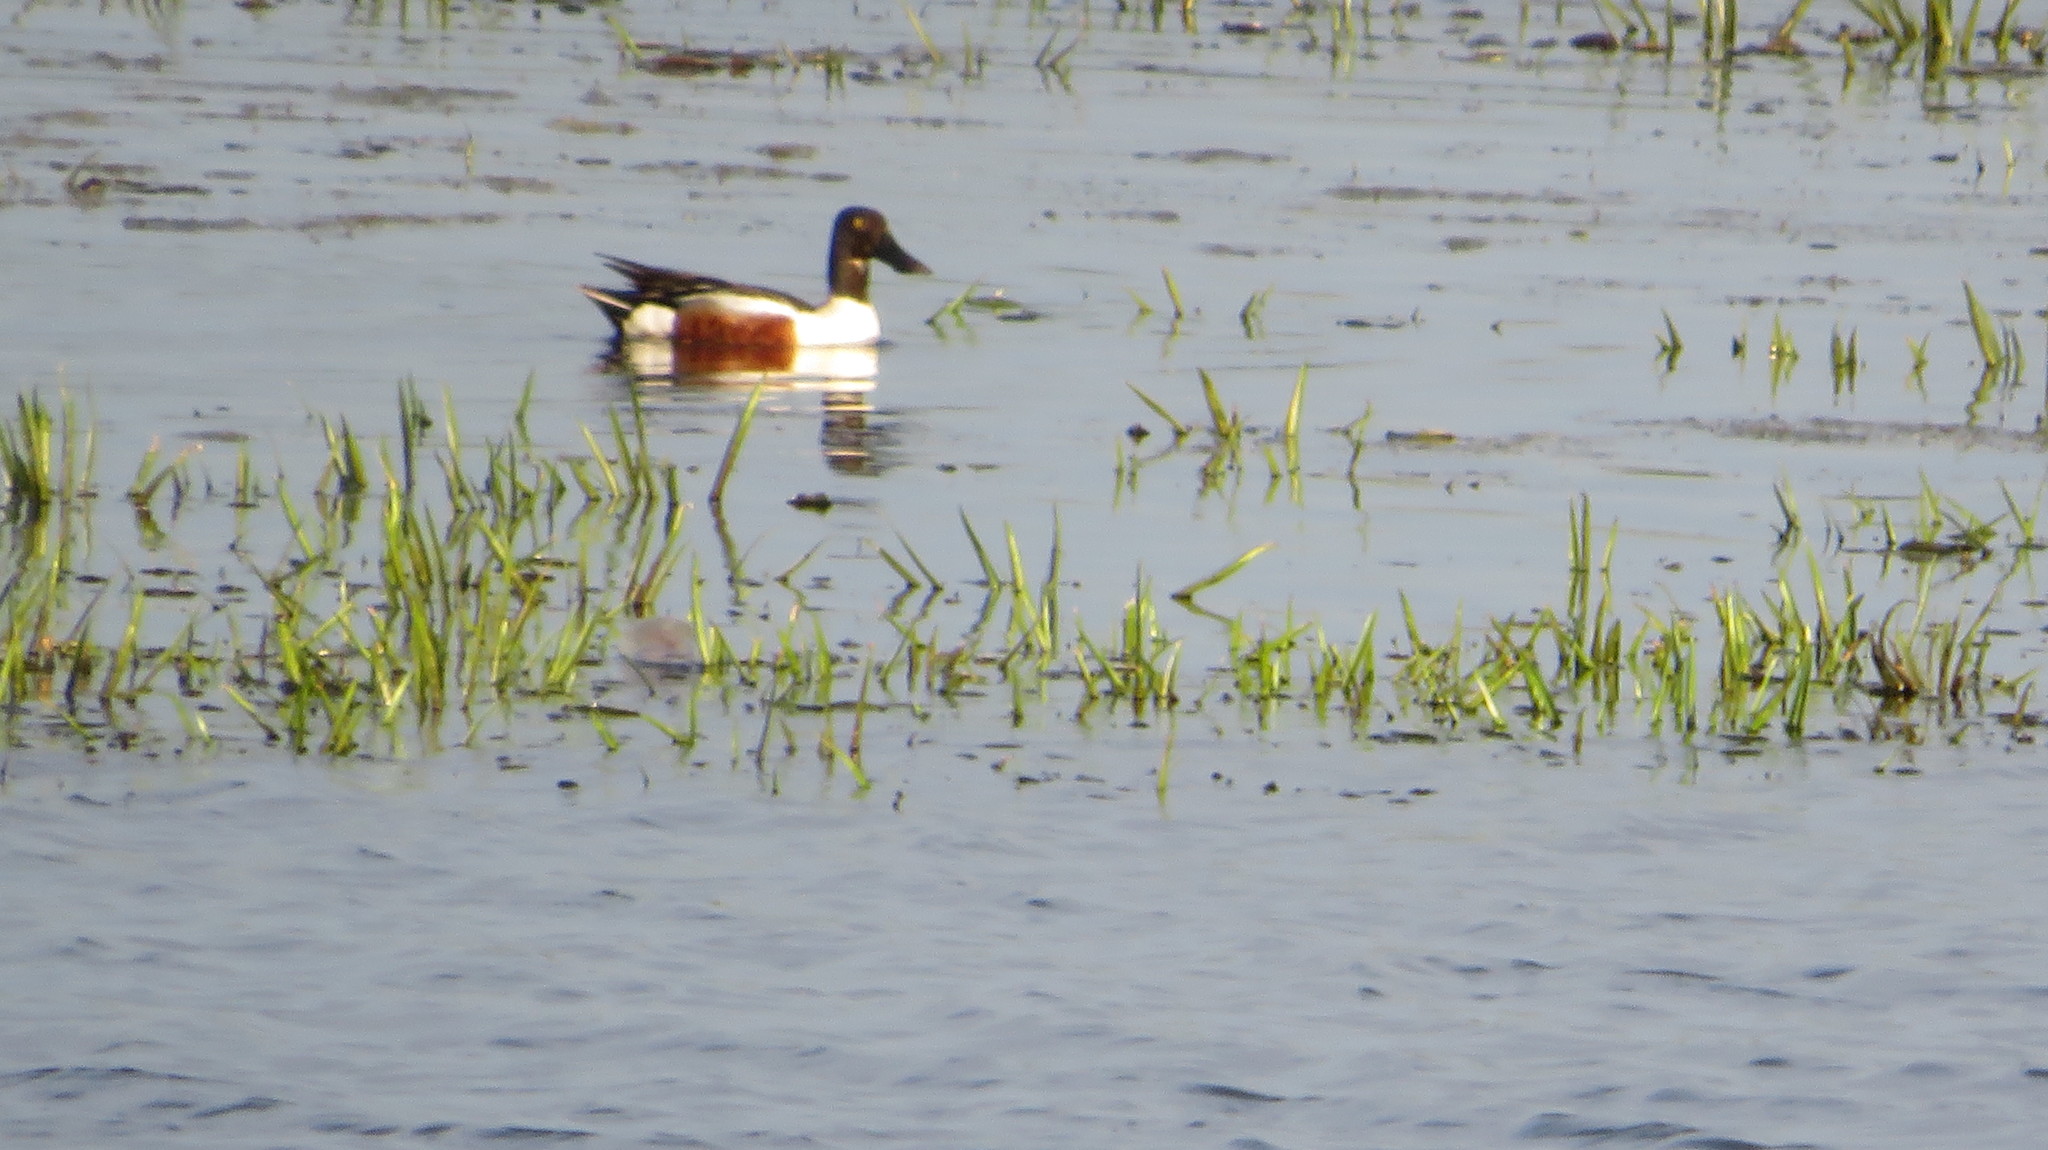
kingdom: Animalia
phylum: Chordata
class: Aves
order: Anseriformes
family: Anatidae
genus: Spatula
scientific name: Spatula clypeata
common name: Northern shoveler
